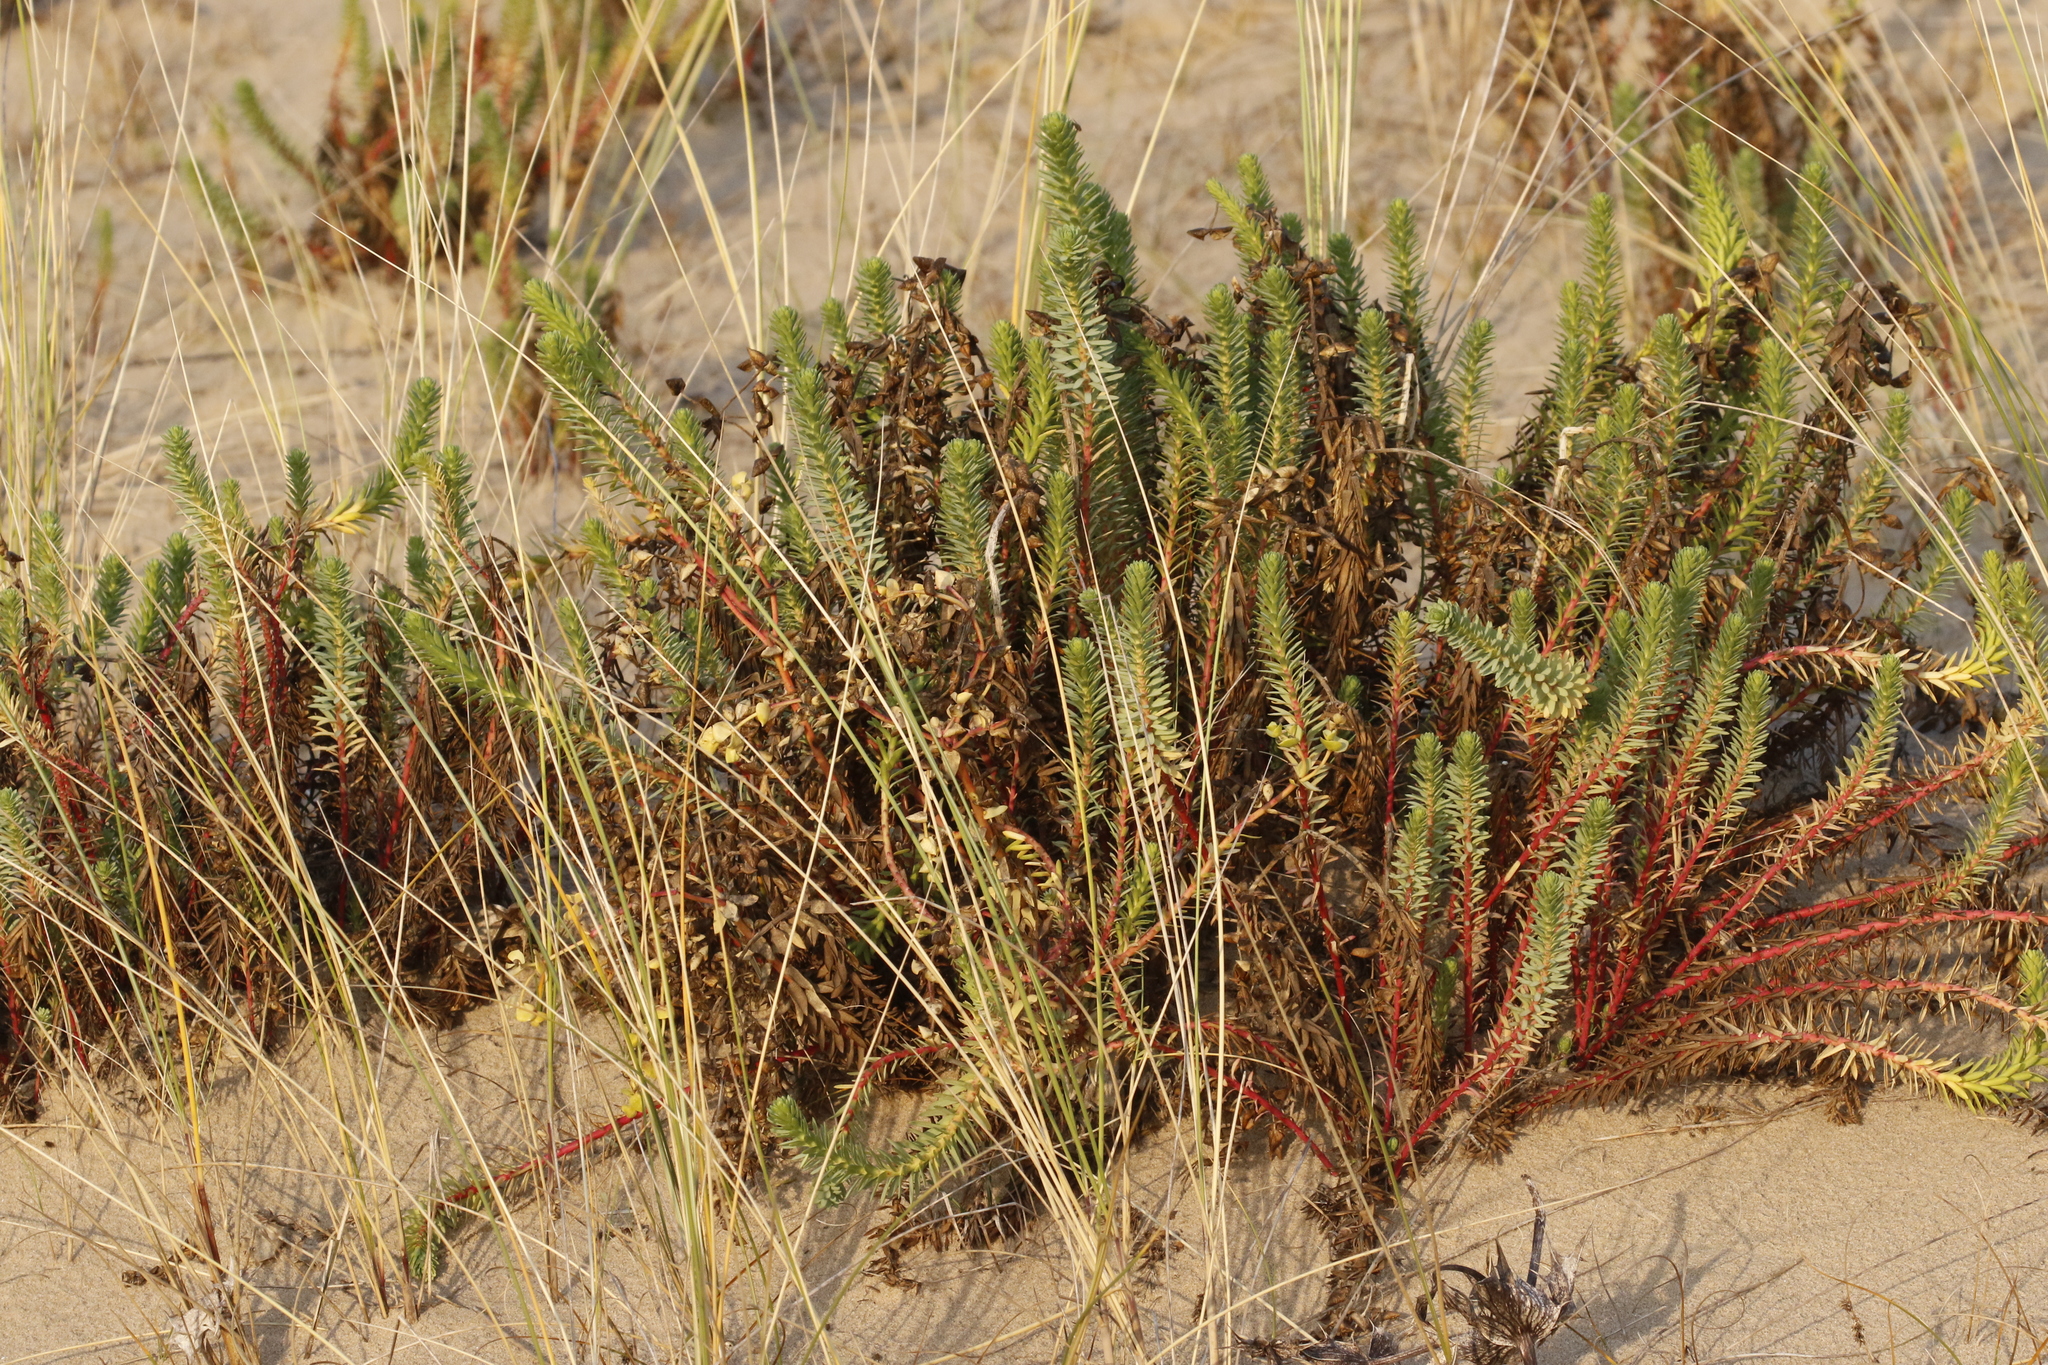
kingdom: Plantae
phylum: Tracheophyta
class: Magnoliopsida
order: Malpighiales
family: Euphorbiaceae
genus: Euphorbia
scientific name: Euphorbia paralias
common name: Sea spurge
